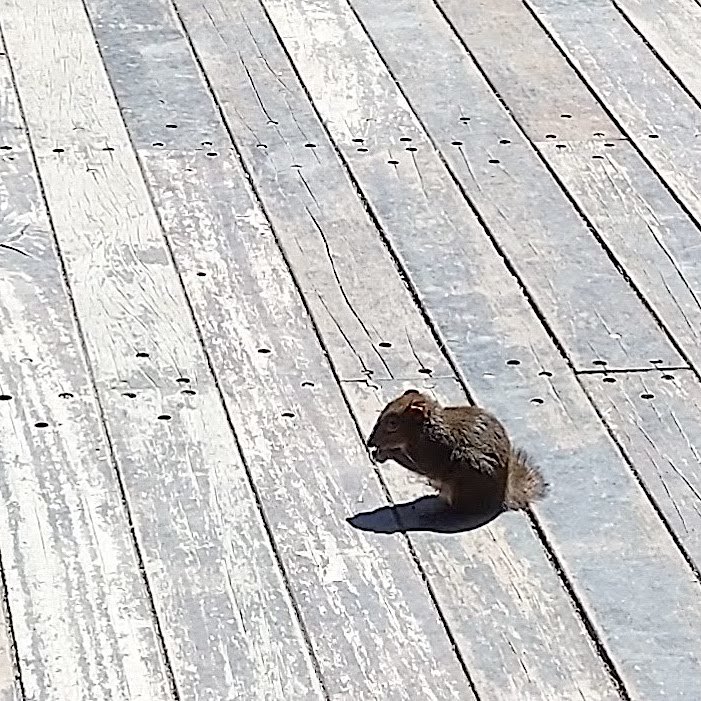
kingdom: Animalia
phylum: Chordata
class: Mammalia
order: Rodentia
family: Sciuridae
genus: Dremomys
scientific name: Dremomys pernyi
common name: Perny's long-nosed squirrel
